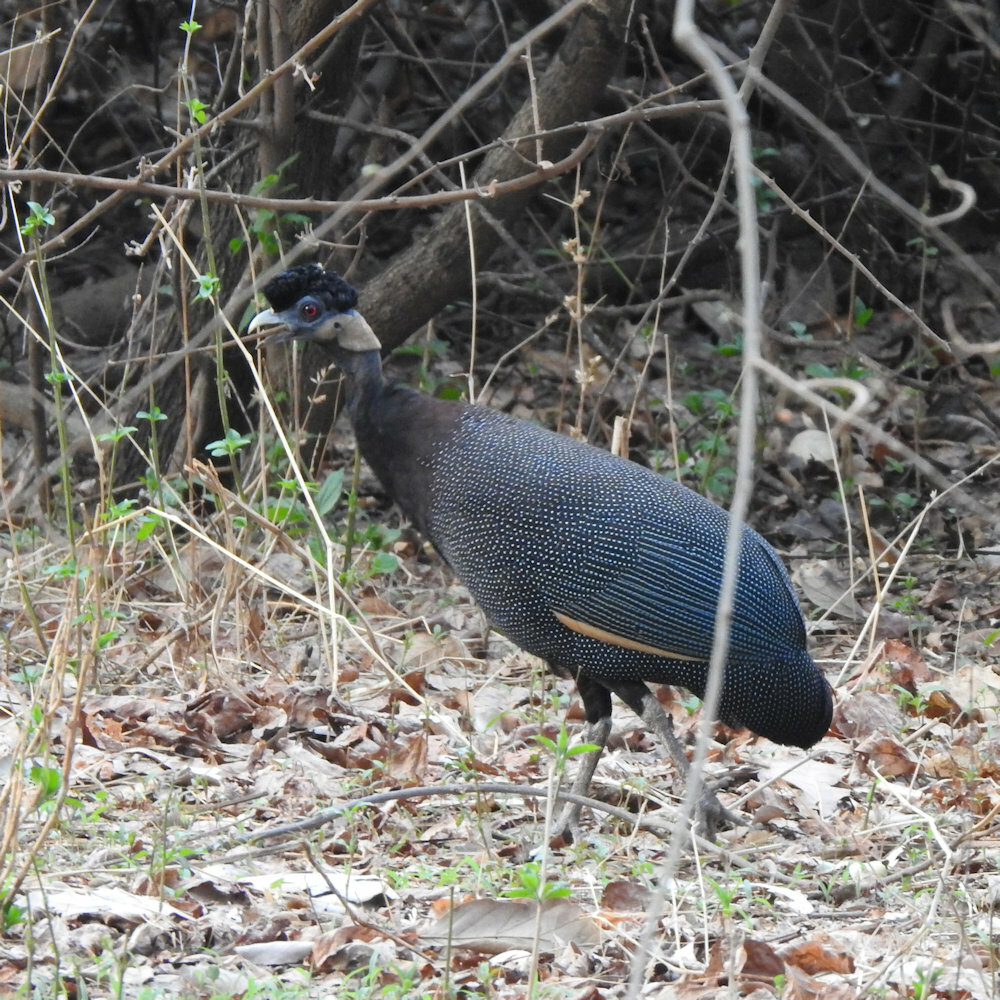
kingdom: Animalia
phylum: Chordata
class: Aves
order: Galliformes
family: Numididae
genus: Guttera
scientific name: Guttera pucherani
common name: Crested guineafowl
